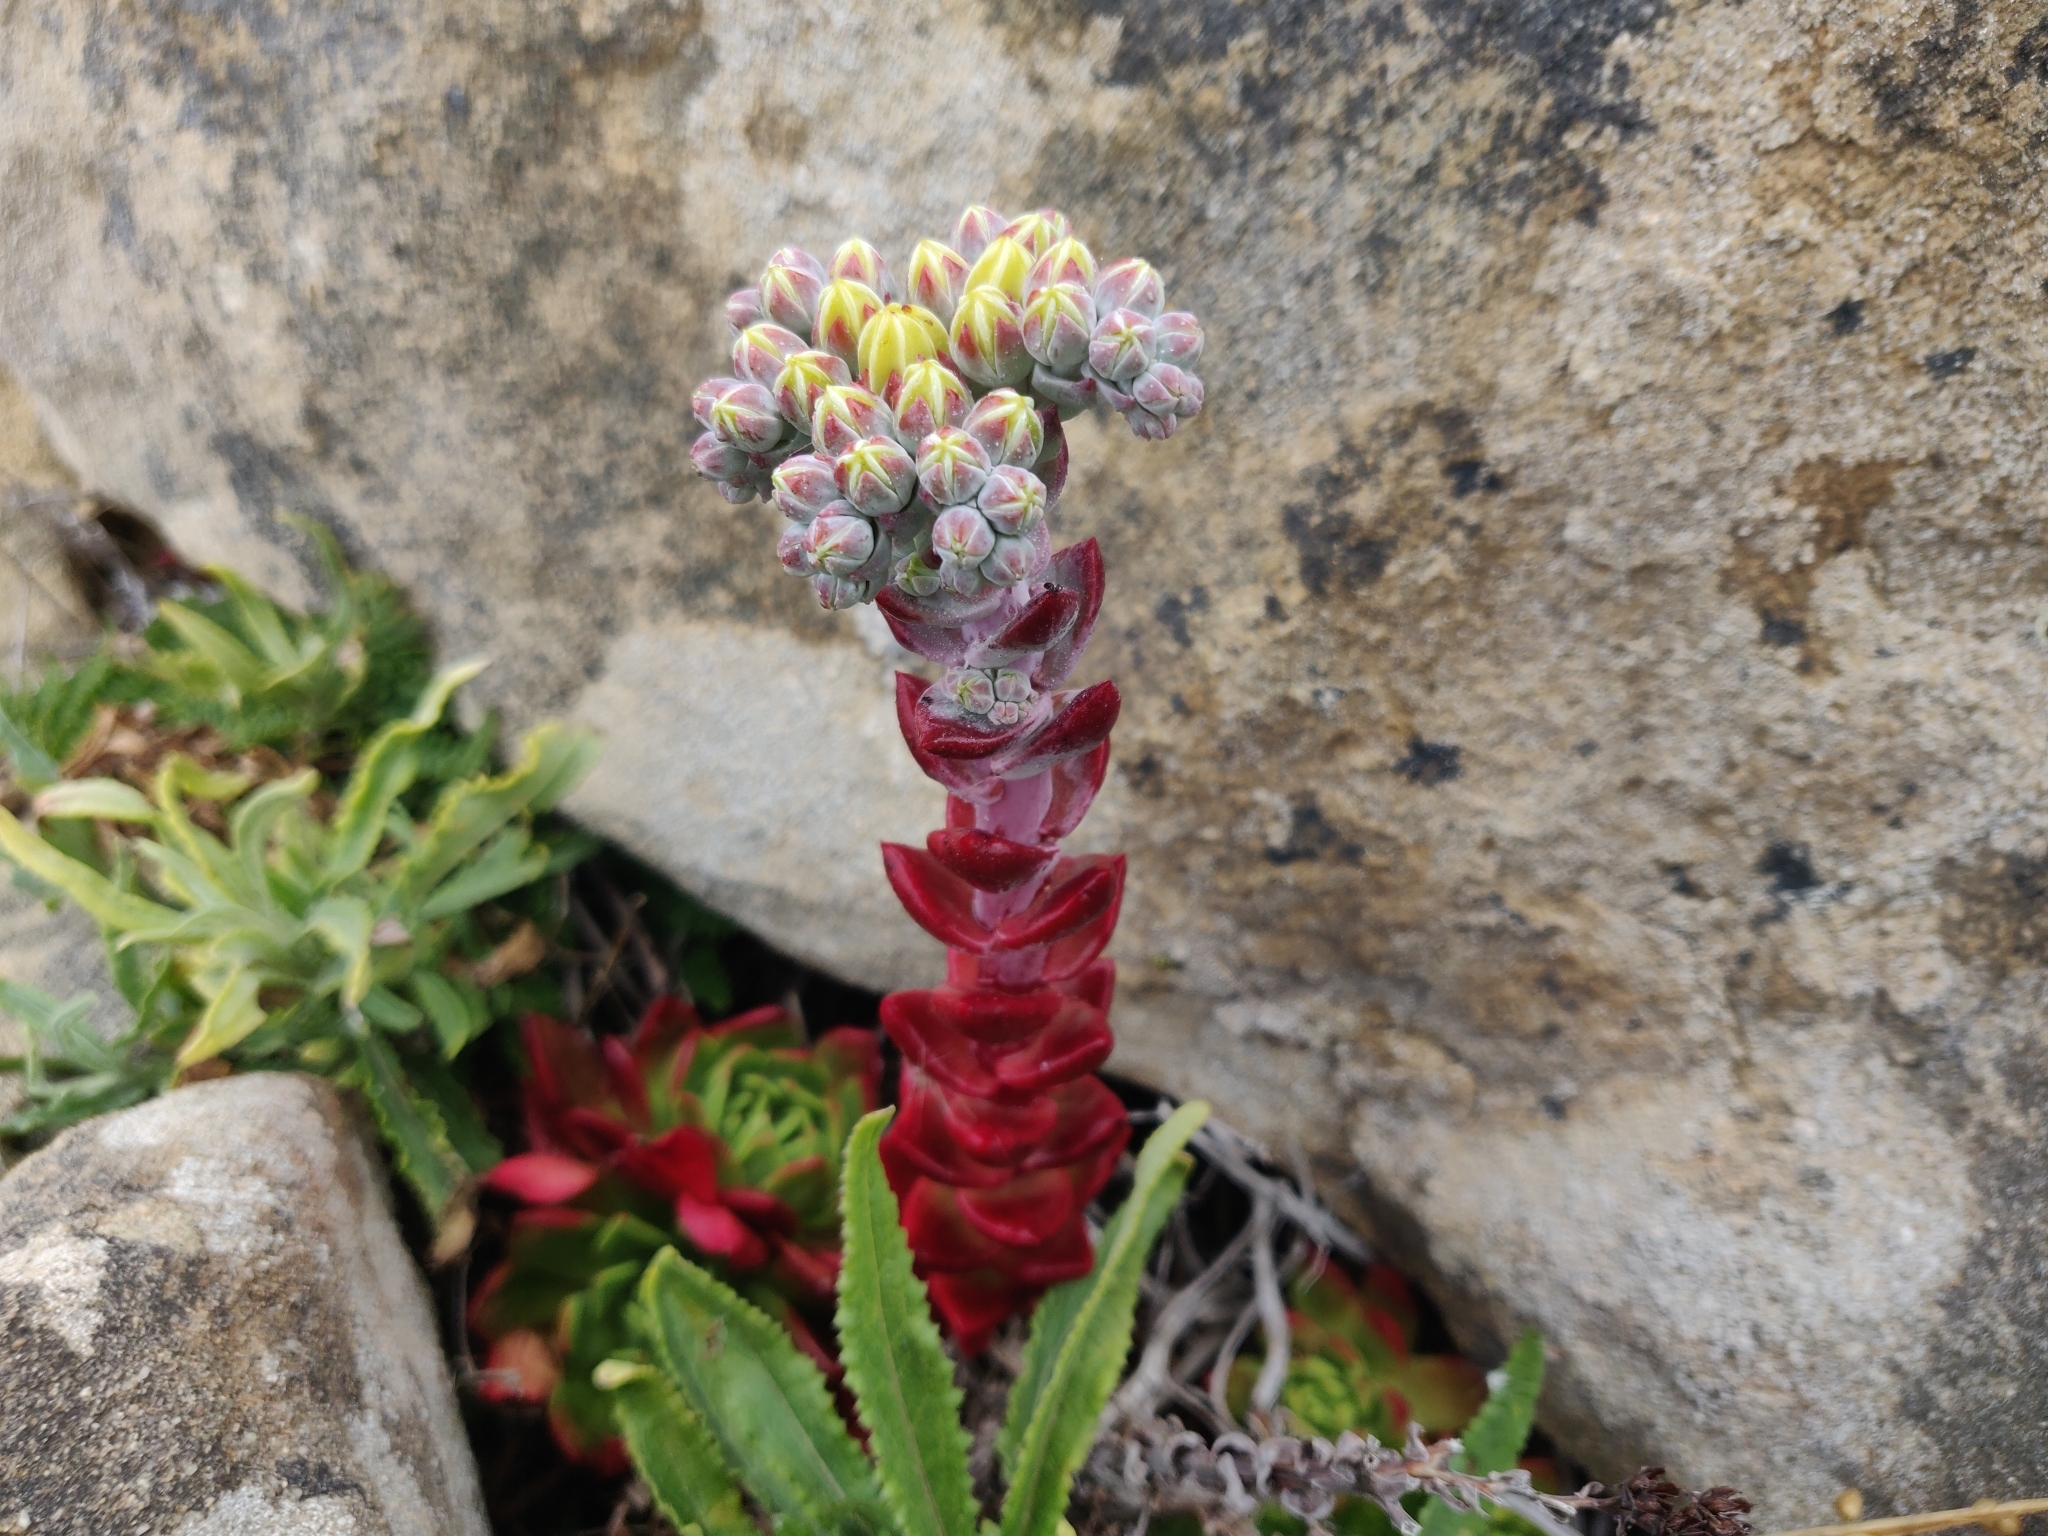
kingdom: Plantae
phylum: Tracheophyta
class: Magnoliopsida
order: Saxifragales
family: Crassulaceae
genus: Dudleya
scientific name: Dudleya farinosa
